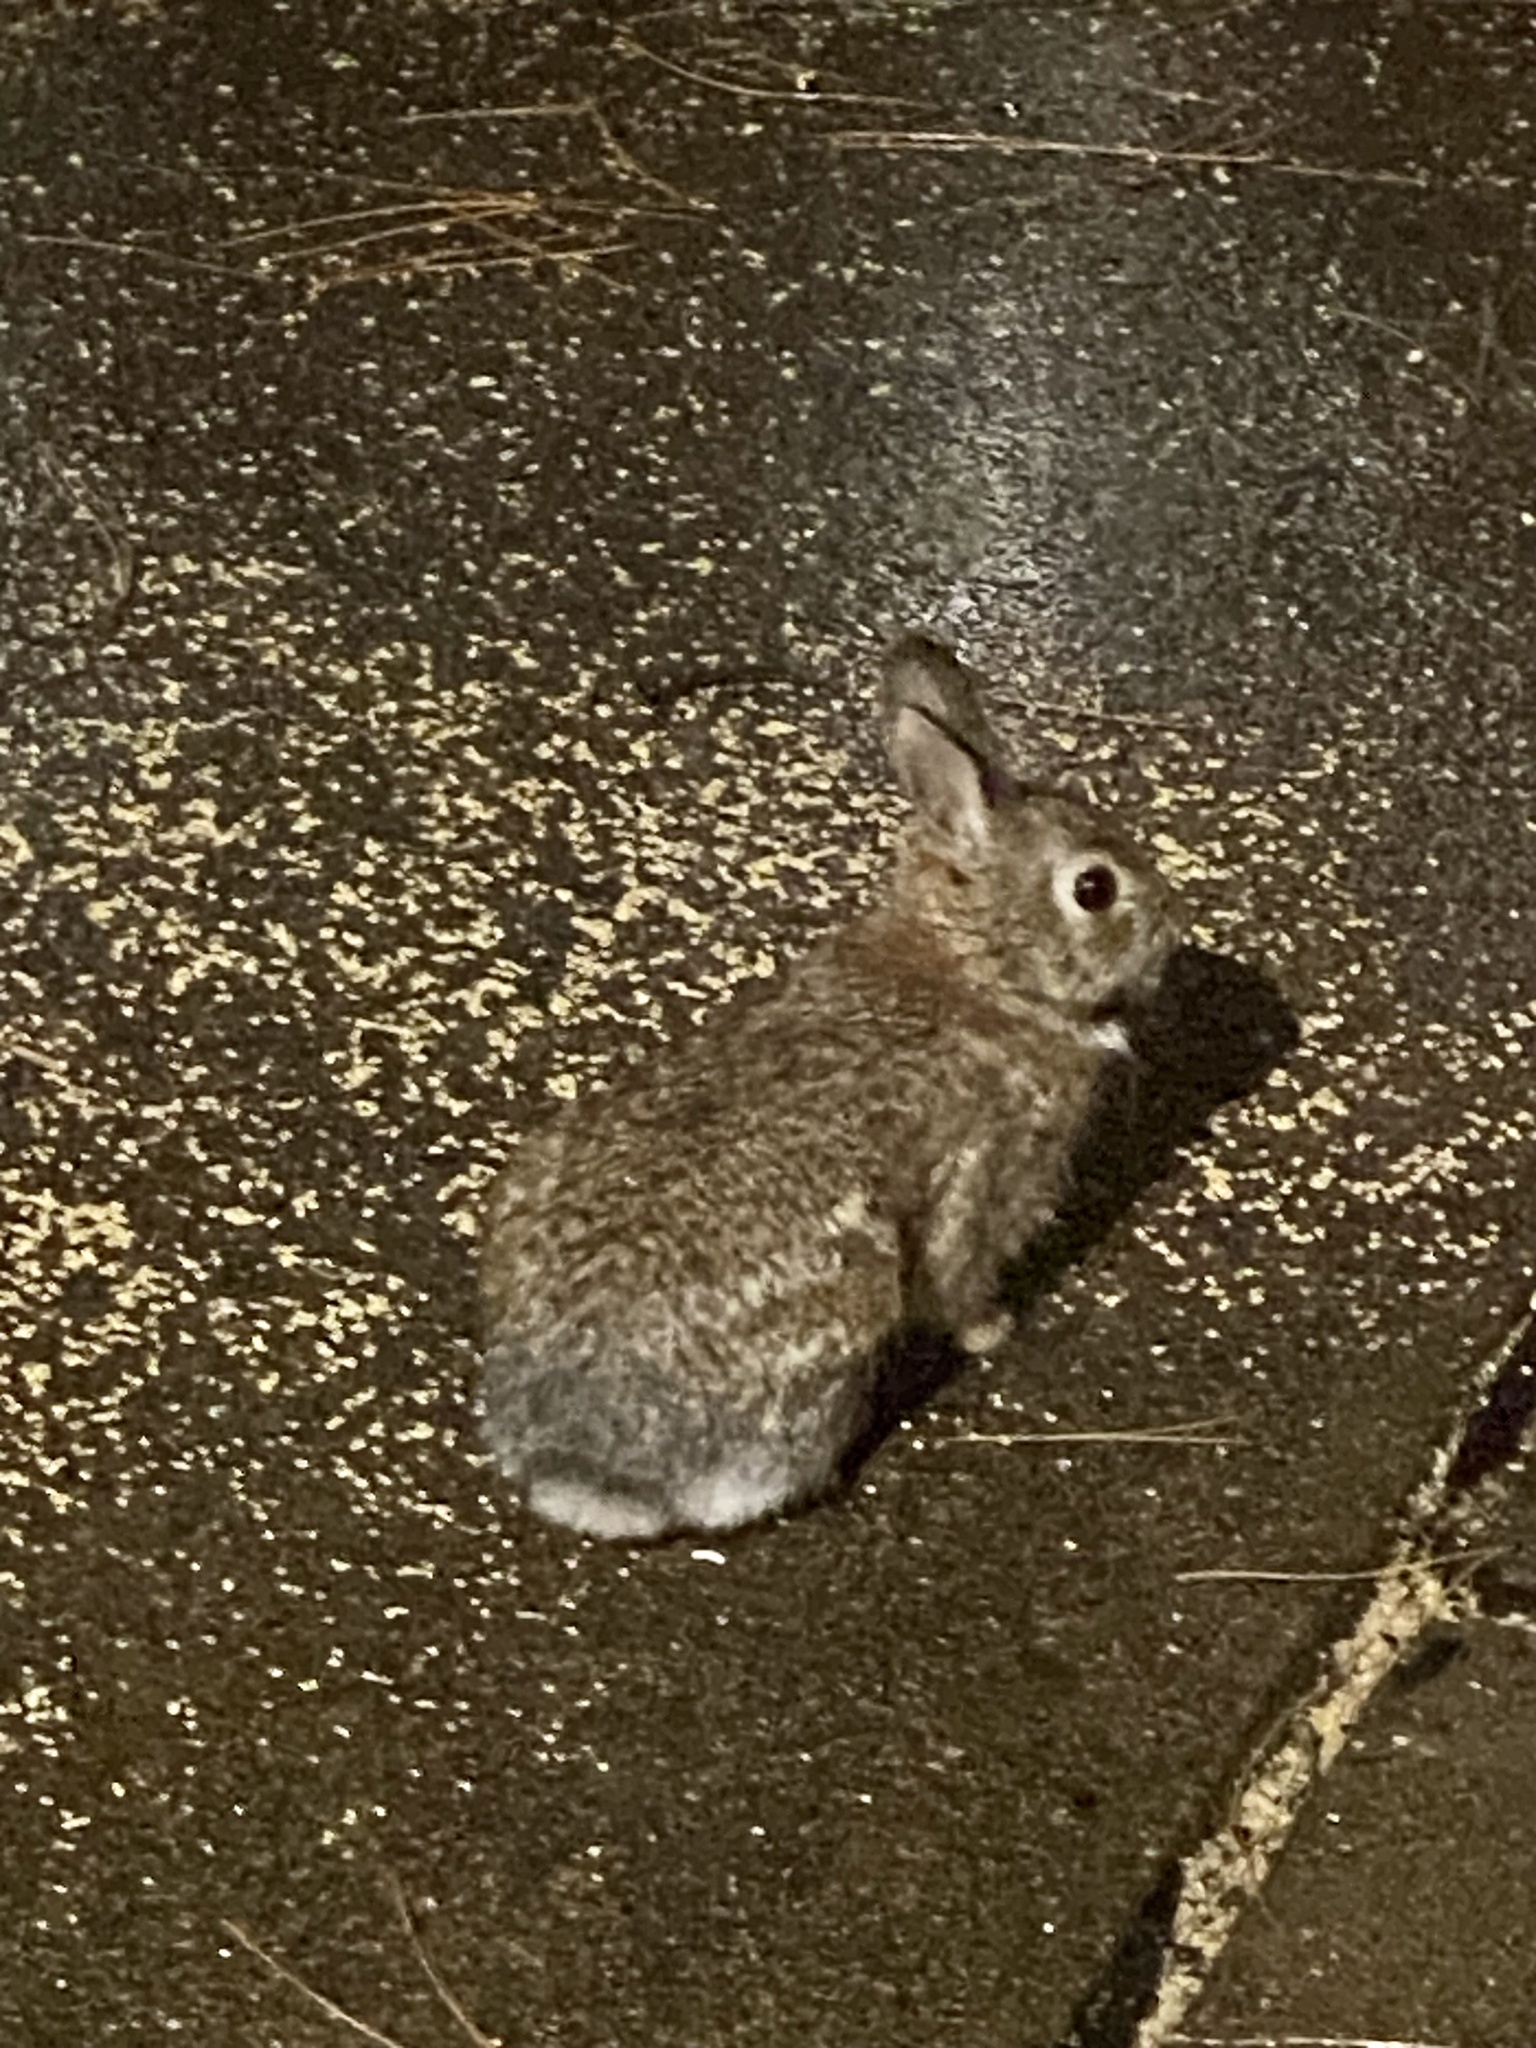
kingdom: Animalia
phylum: Chordata
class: Mammalia
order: Lagomorpha
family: Leporidae
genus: Sylvilagus
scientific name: Sylvilagus floridanus
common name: Eastern cottontail
